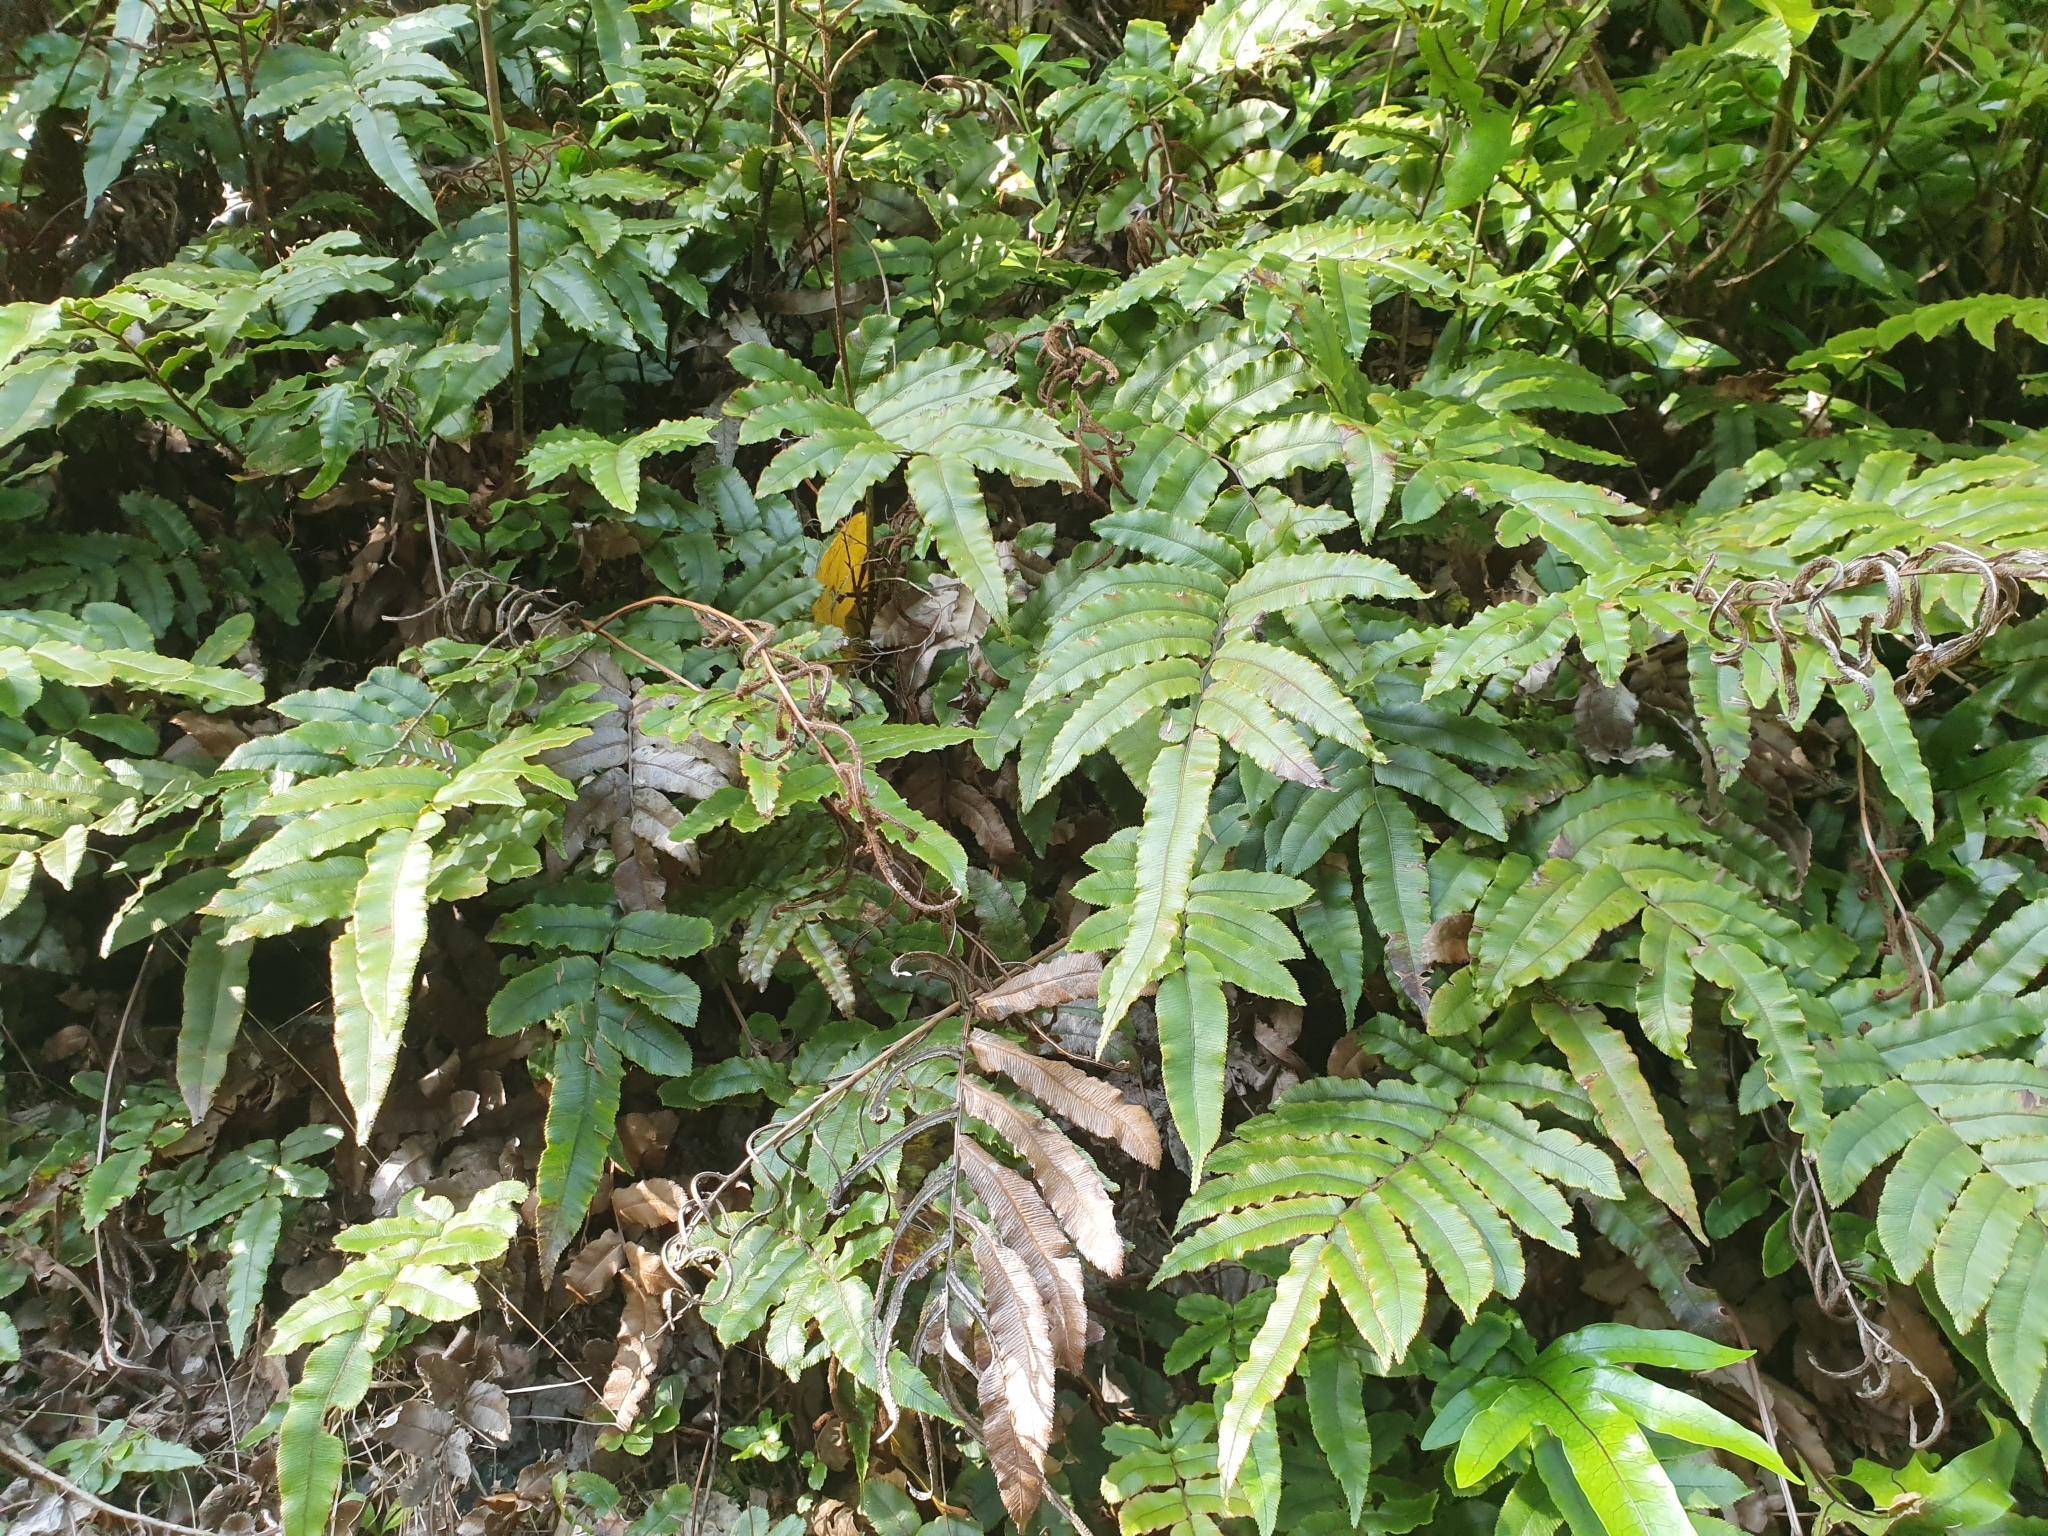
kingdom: Plantae
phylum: Tracheophyta
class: Polypodiopsida
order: Polypodiales
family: Blechnaceae
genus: Parablechnum
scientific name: Parablechnum procerum
